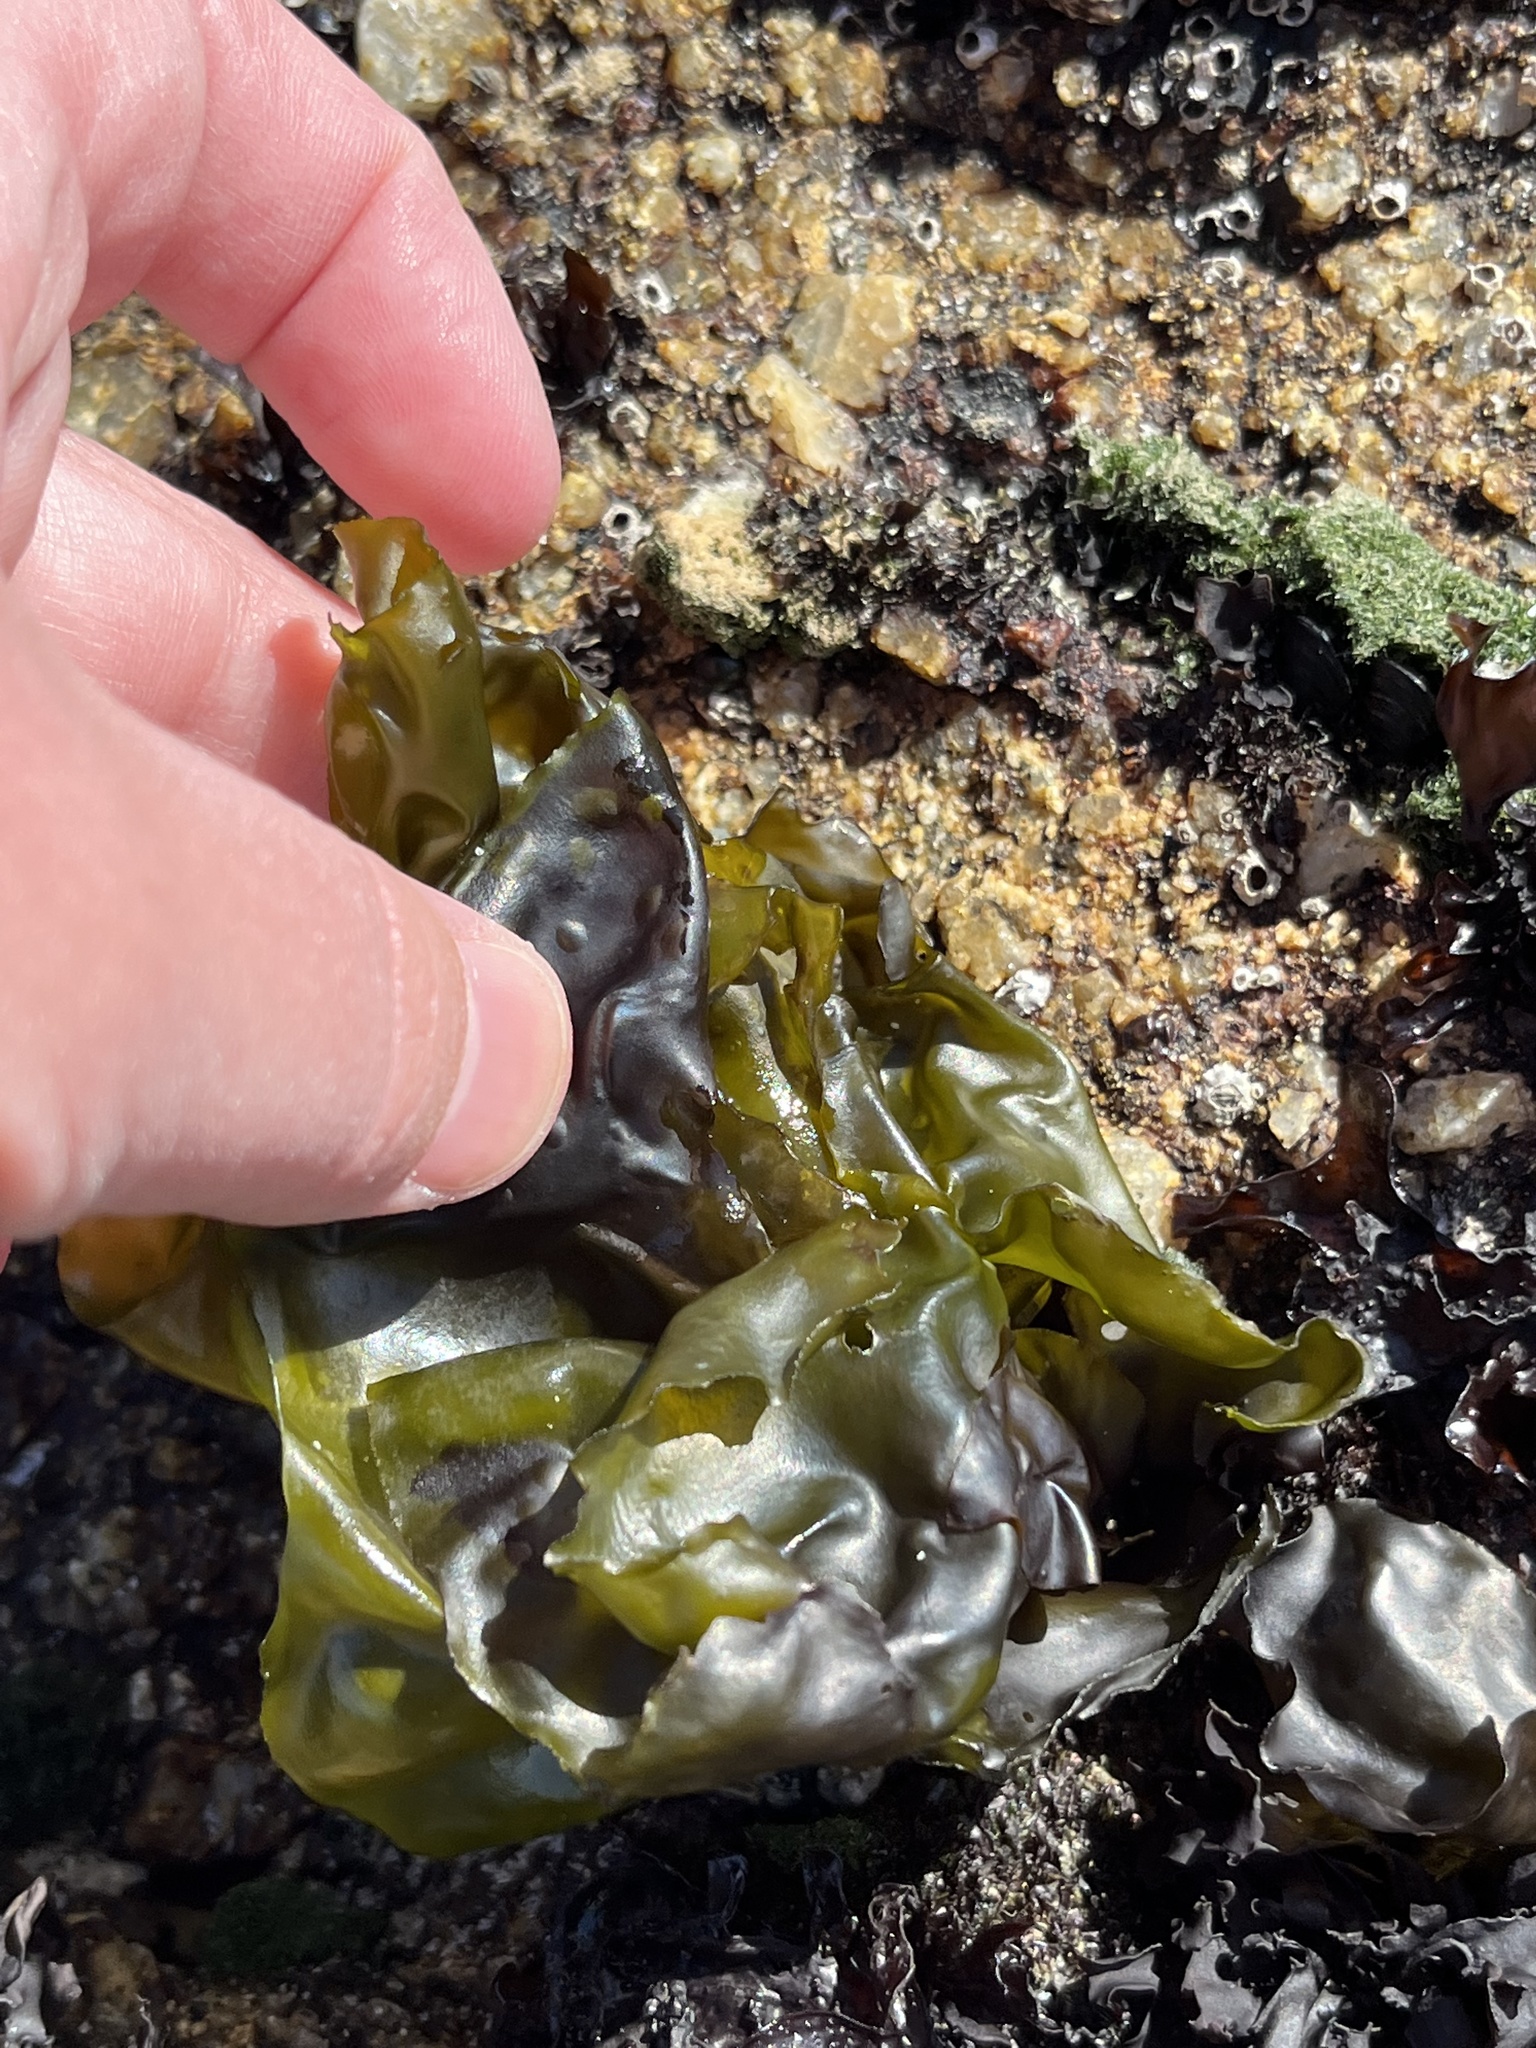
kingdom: Plantae
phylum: Rhodophyta
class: Florideophyceae
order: Gigartinales
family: Gigartinaceae
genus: Mazzaella
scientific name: Mazzaella flaccida
